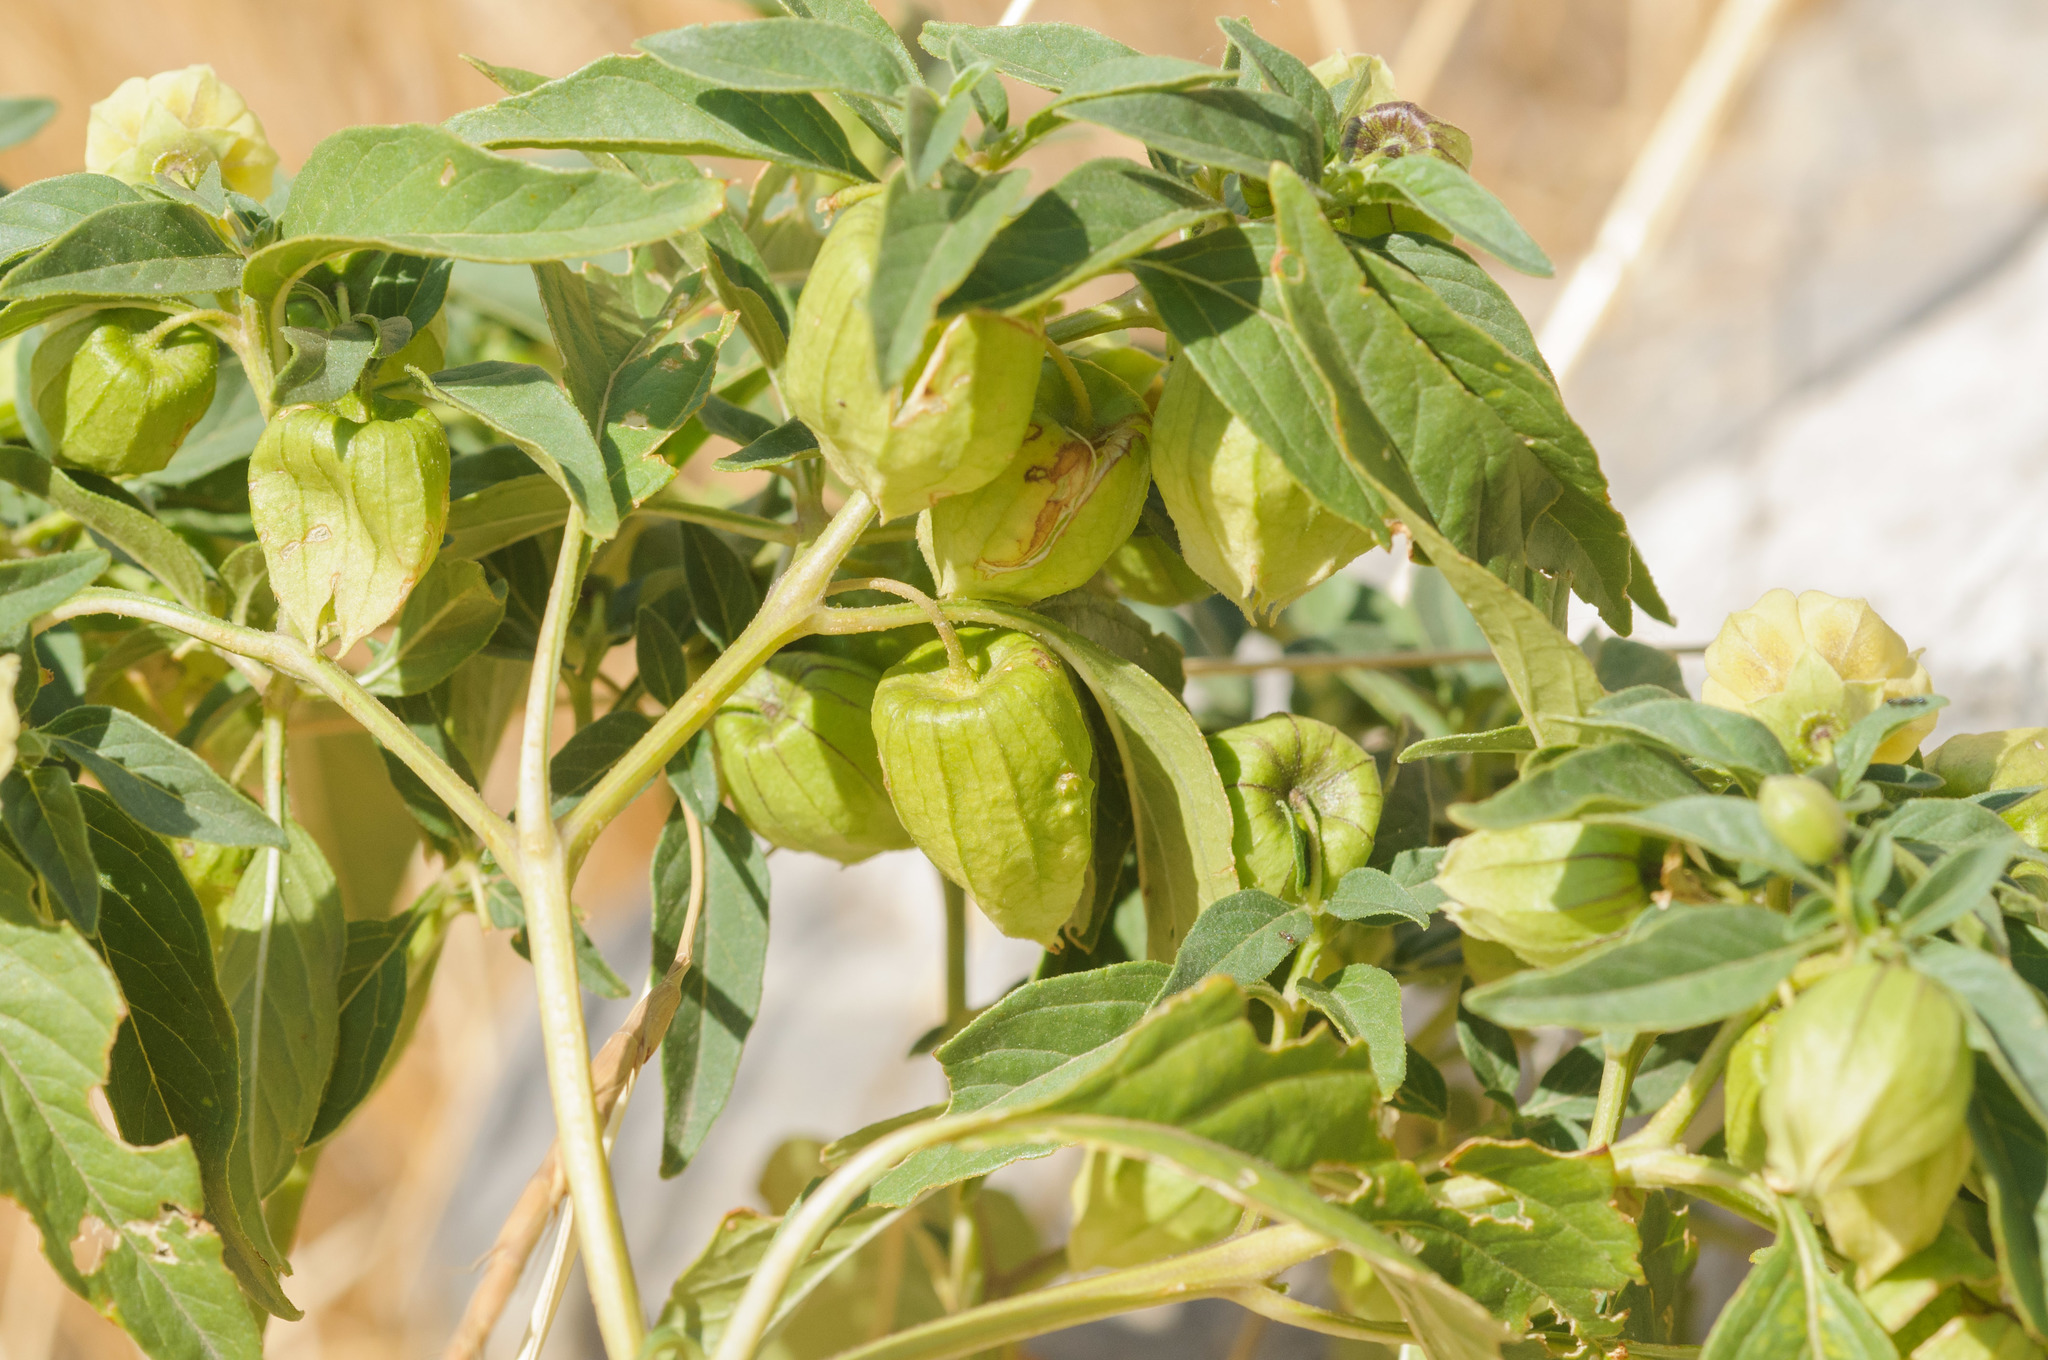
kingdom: Plantae
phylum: Tracheophyta
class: Magnoliopsida
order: Solanales
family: Solanaceae
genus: Physalis
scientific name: Physalis longifolia
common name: Common ground-cherry
